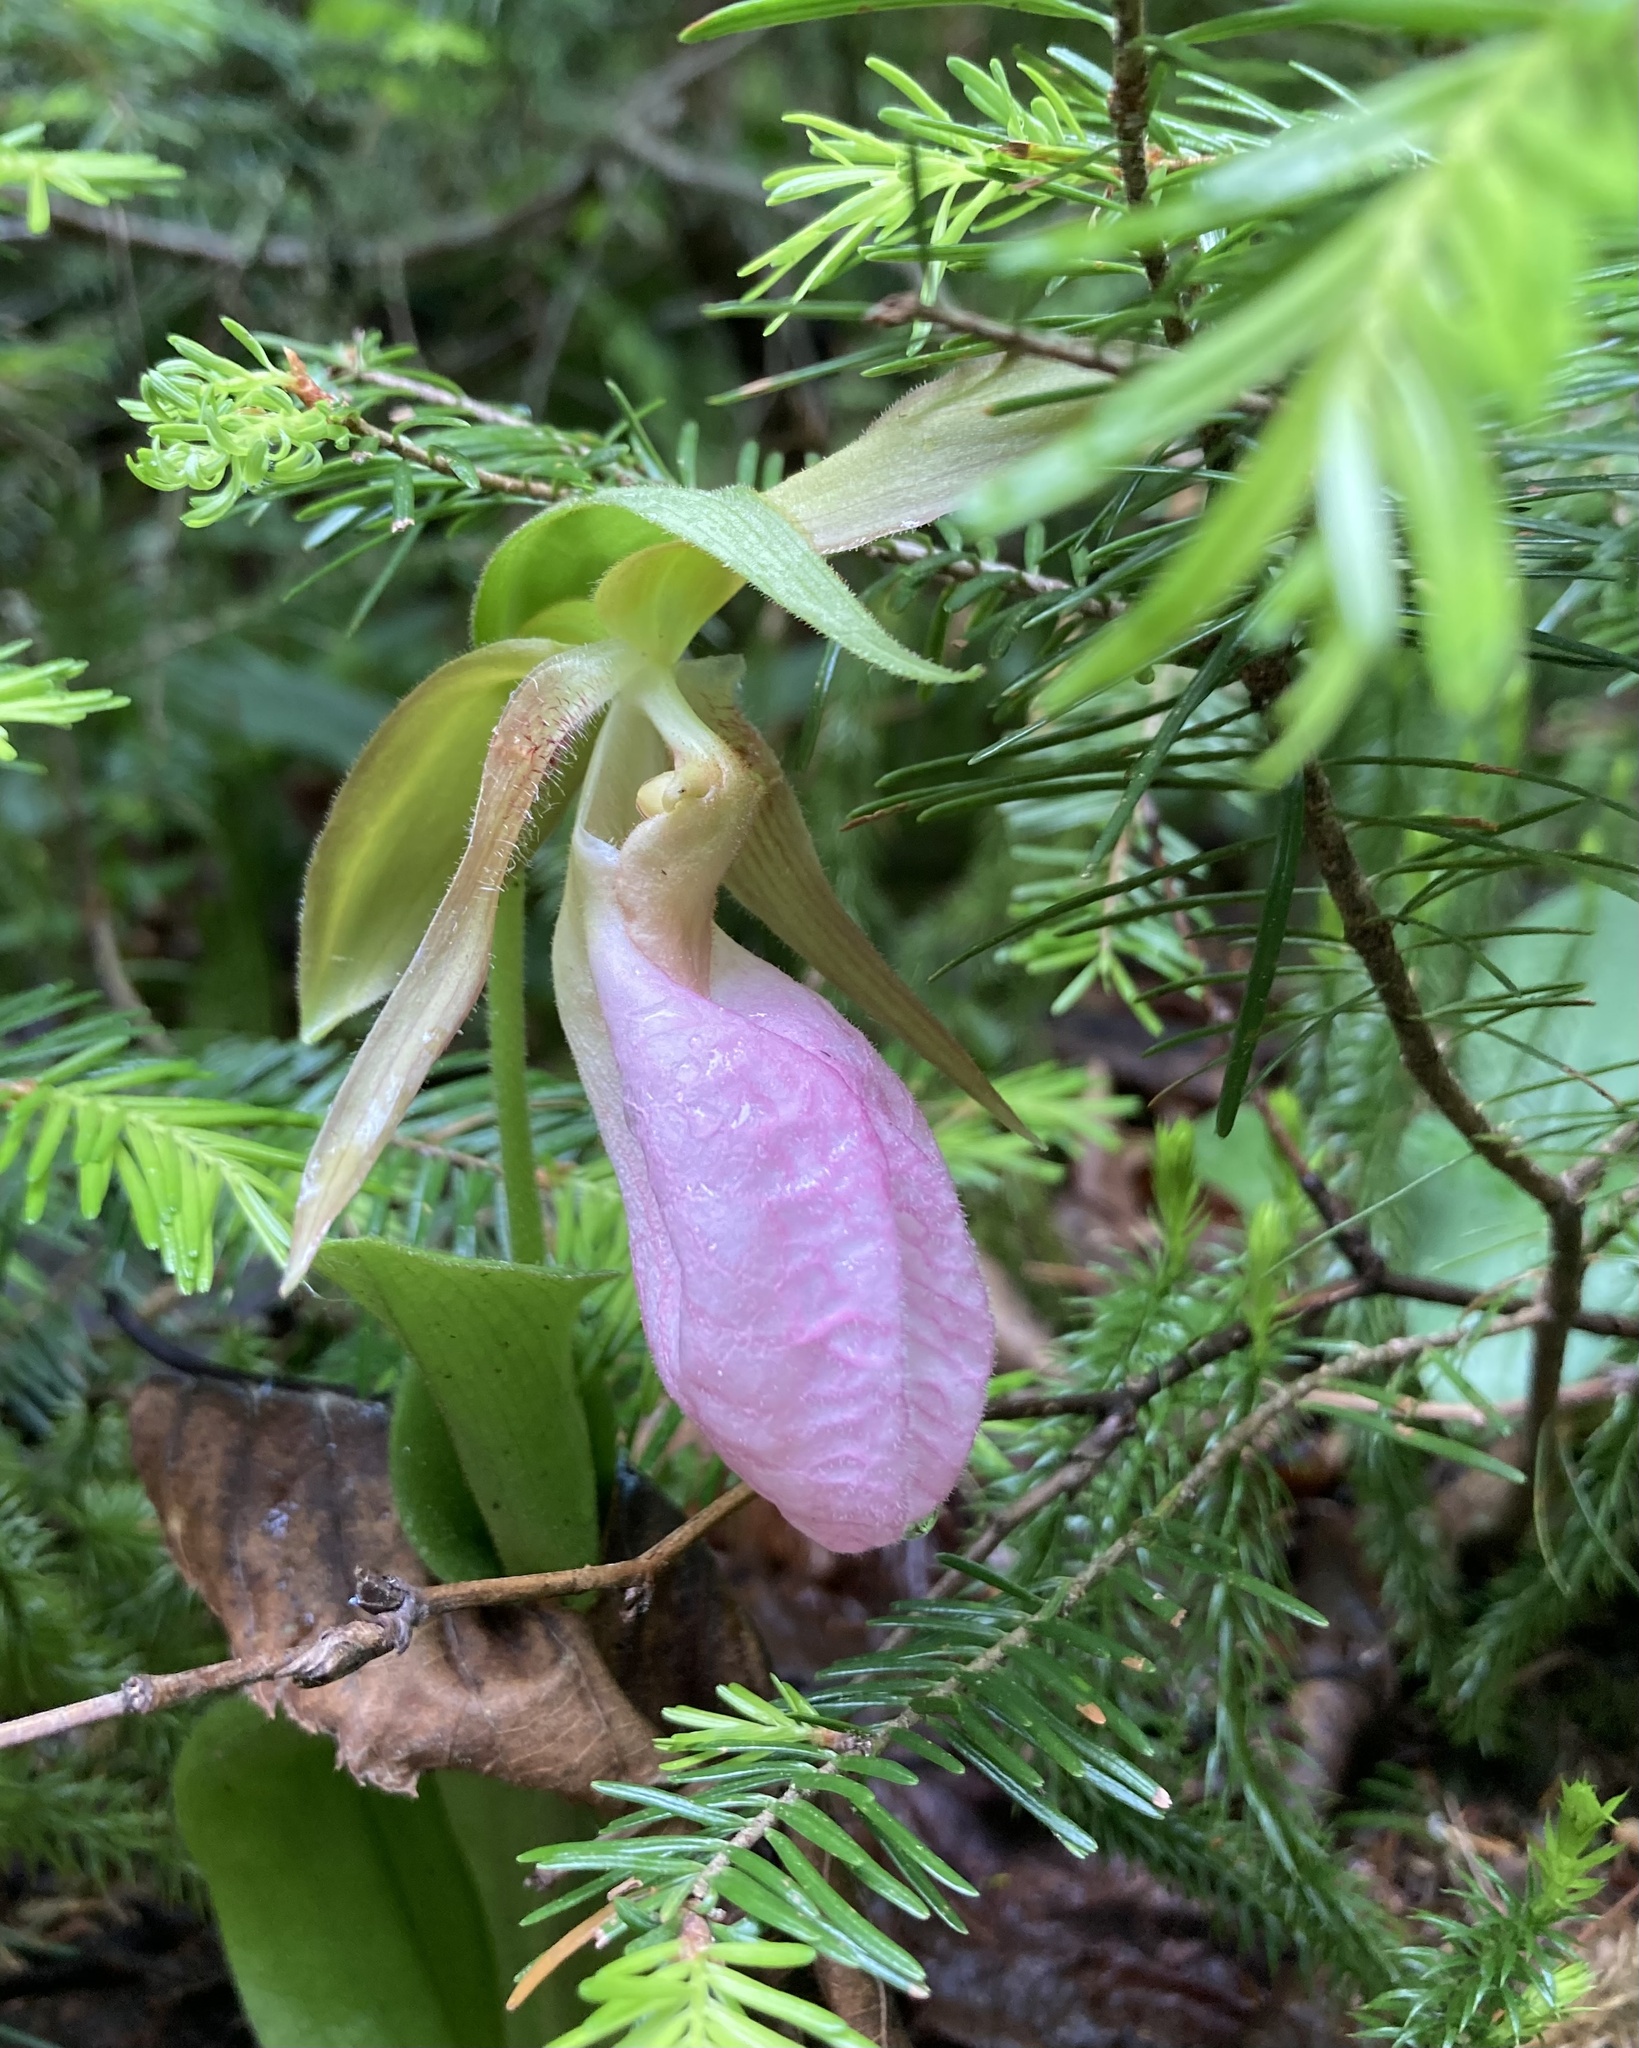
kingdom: Plantae
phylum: Tracheophyta
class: Liliopsida
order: Asparagales
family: Orchidaceae
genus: Cypripedium
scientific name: Cypripedium acaule
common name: Pink lady's-slipper
